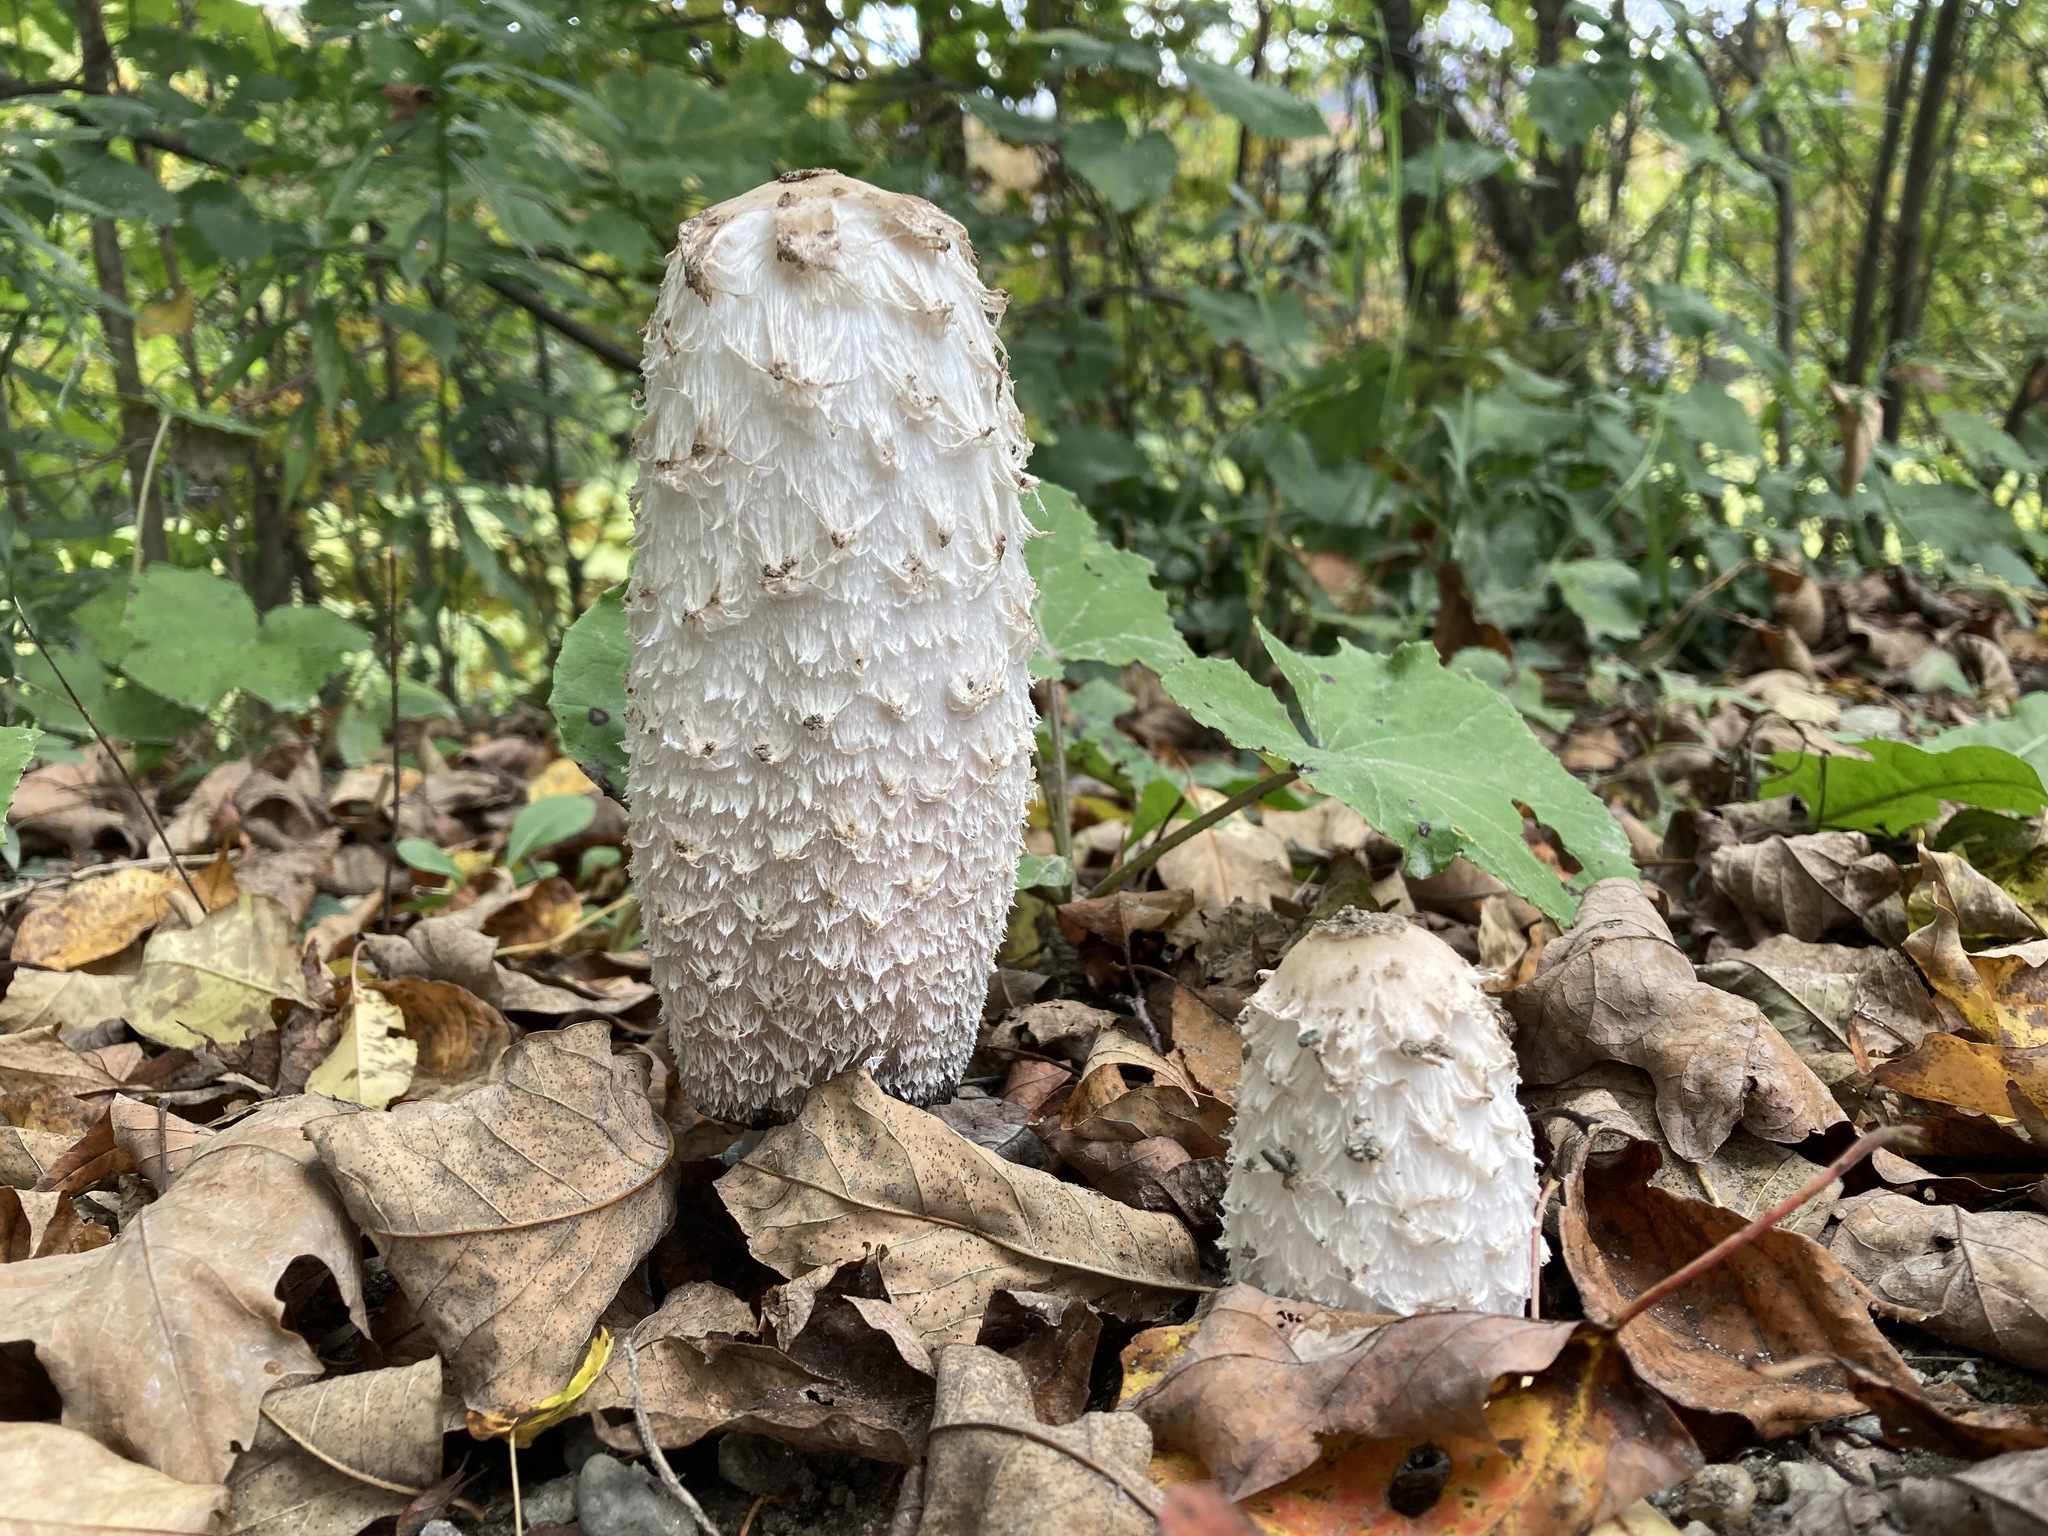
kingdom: Fungi
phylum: Basidiomycota
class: Agaricomycetes
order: Agaricales
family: Agaricaceae
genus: Coprinus
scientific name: Coprinus comatus
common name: Lawyer's wig
